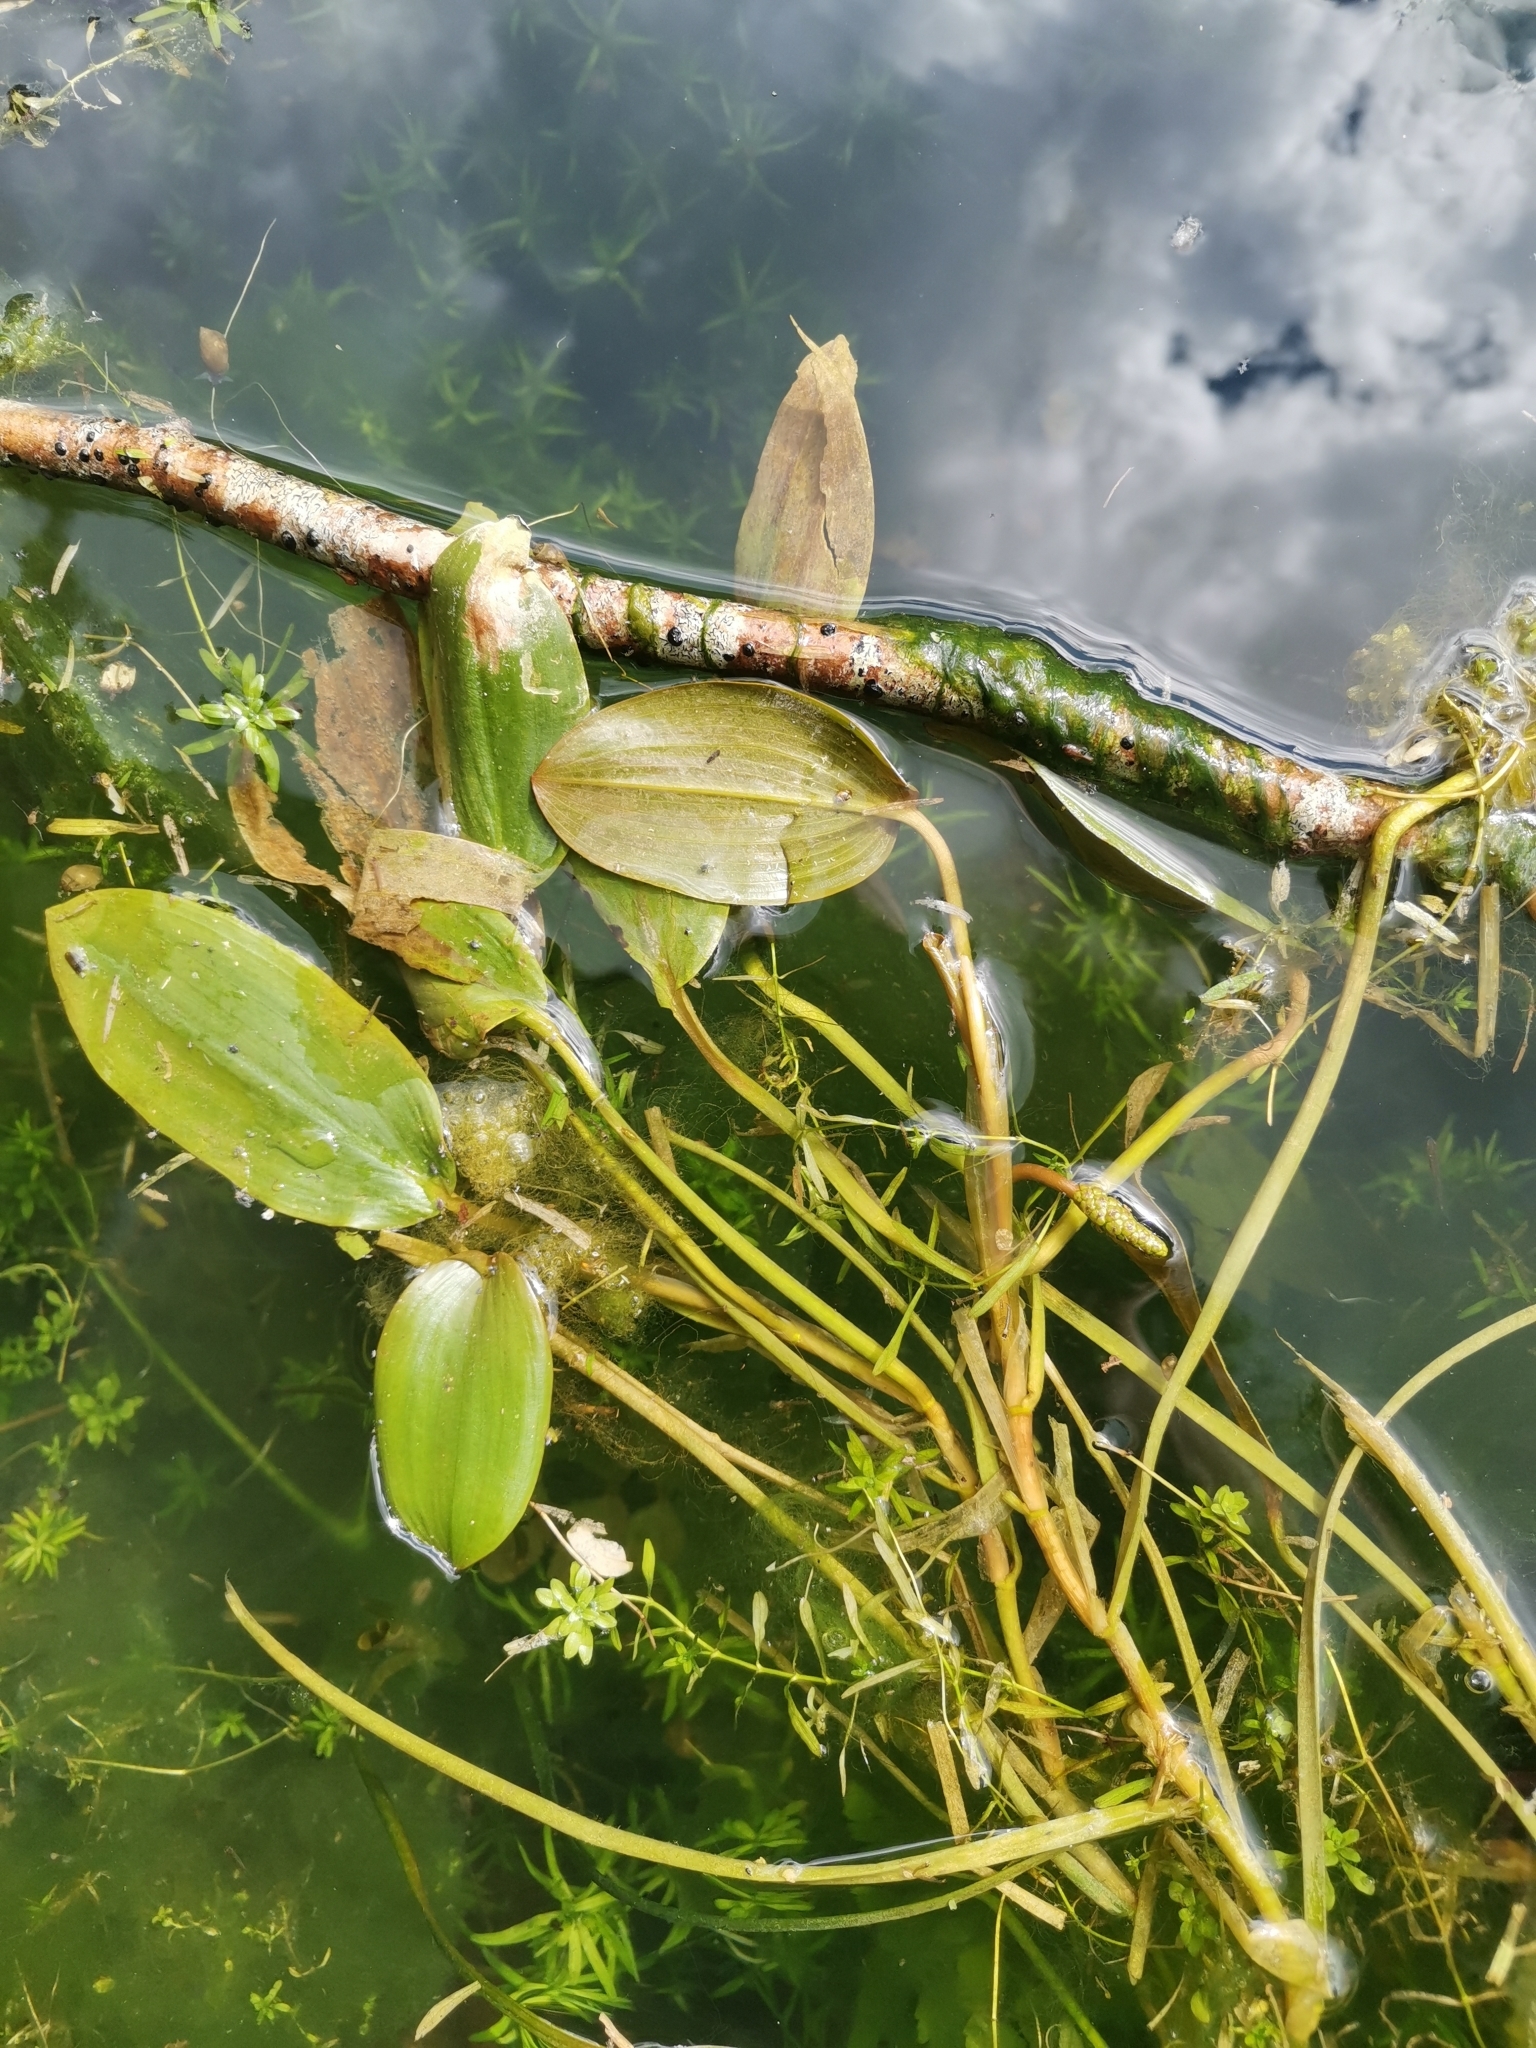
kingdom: Plantae
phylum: Tracheophyta
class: Liliopsida
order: Alismatales
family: Potamogetonaceae
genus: Potamogeton
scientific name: Potamogeton natans
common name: Broad-leaved pondweed
